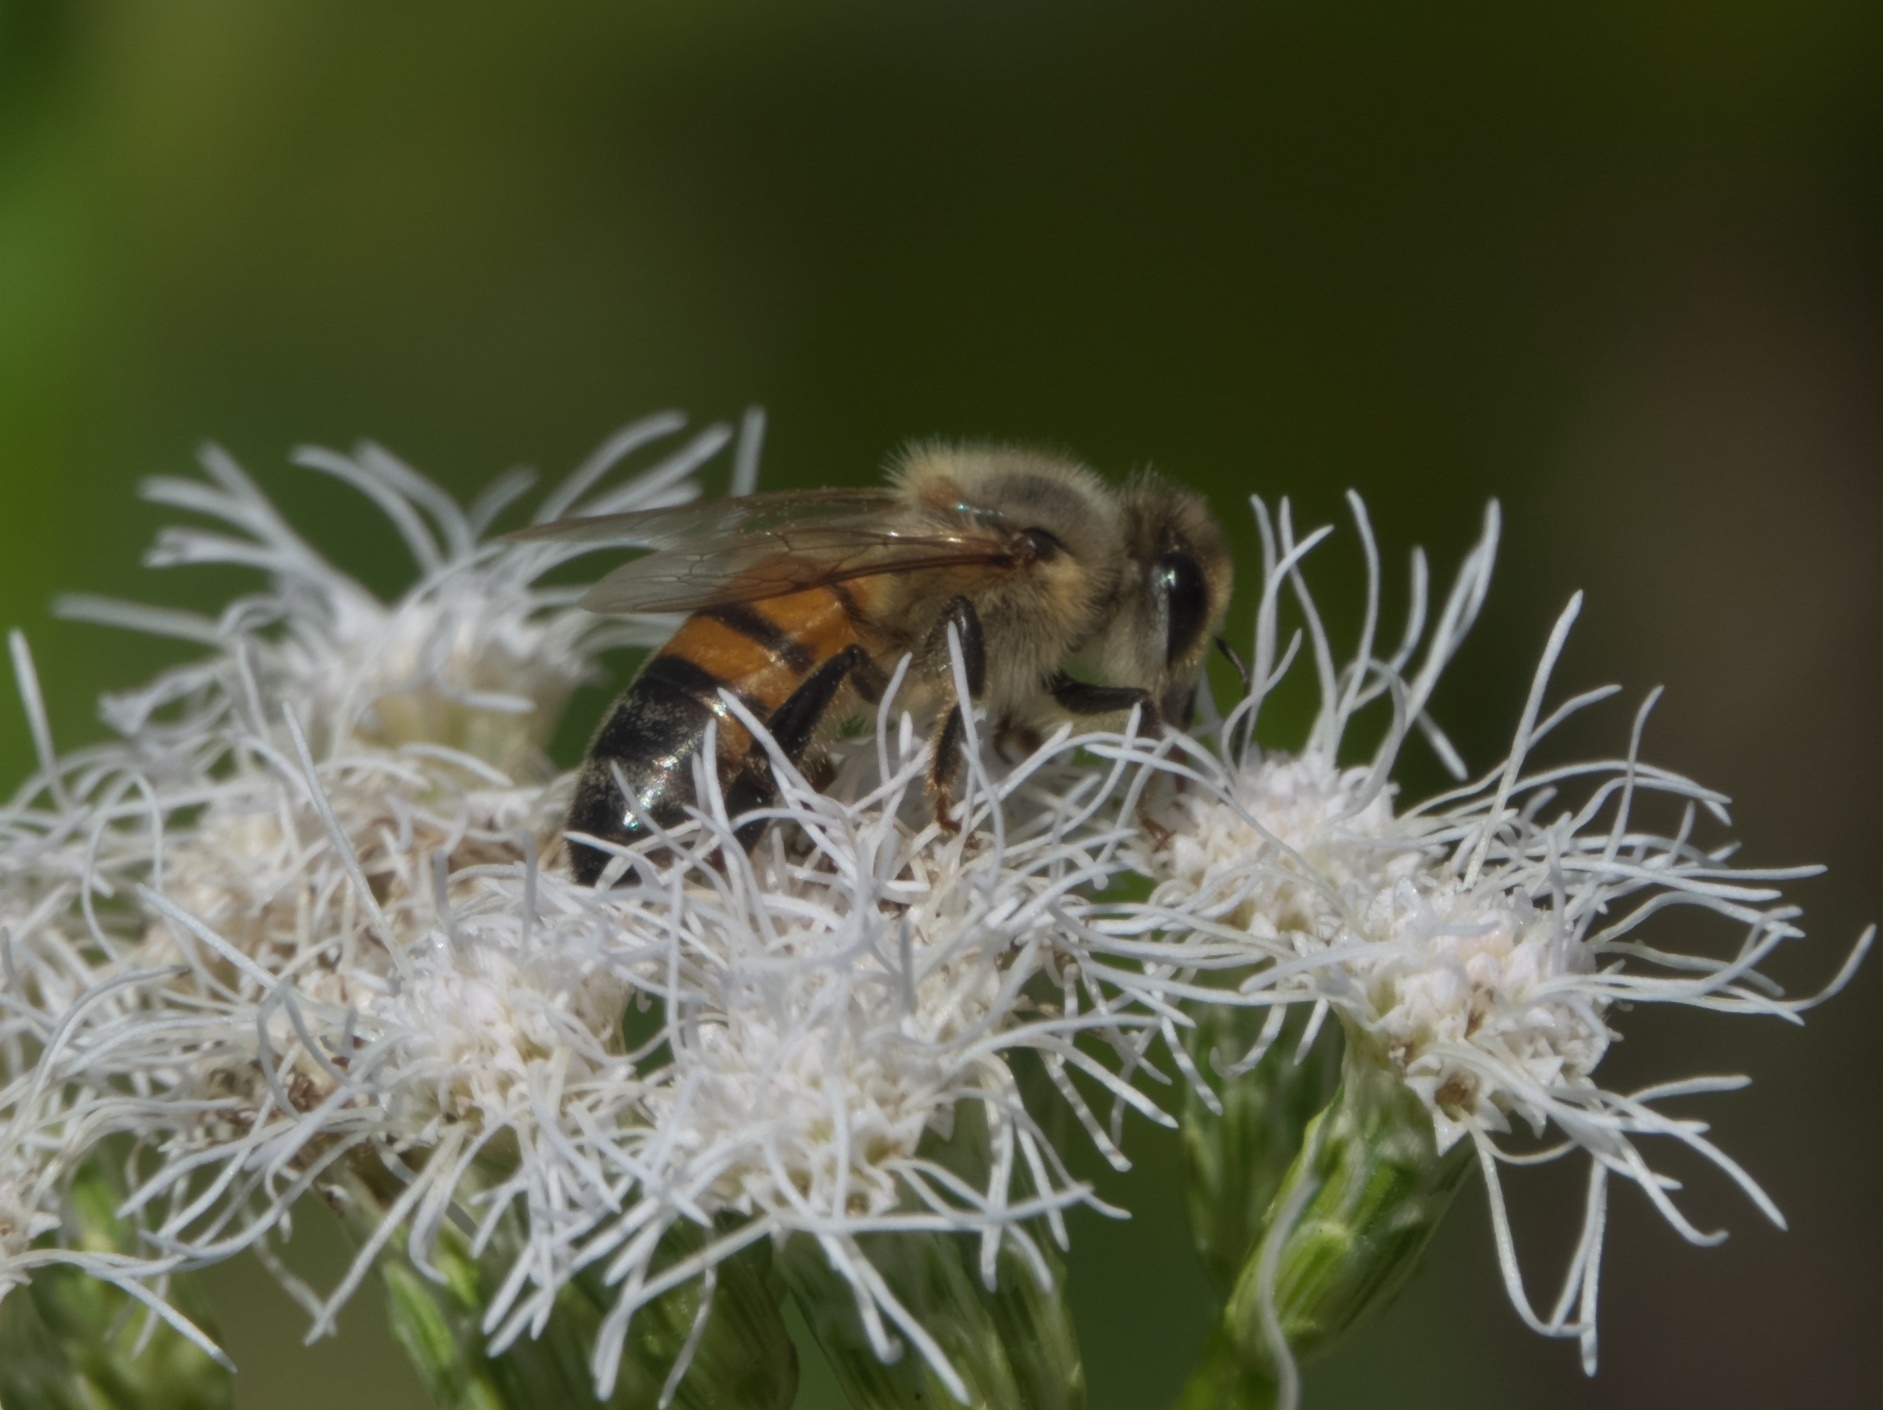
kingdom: Animalia
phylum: Arthropoda
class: Insecta
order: Hymenoptera
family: Apidae
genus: Apis
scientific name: Apis mellifera
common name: Honey bee
